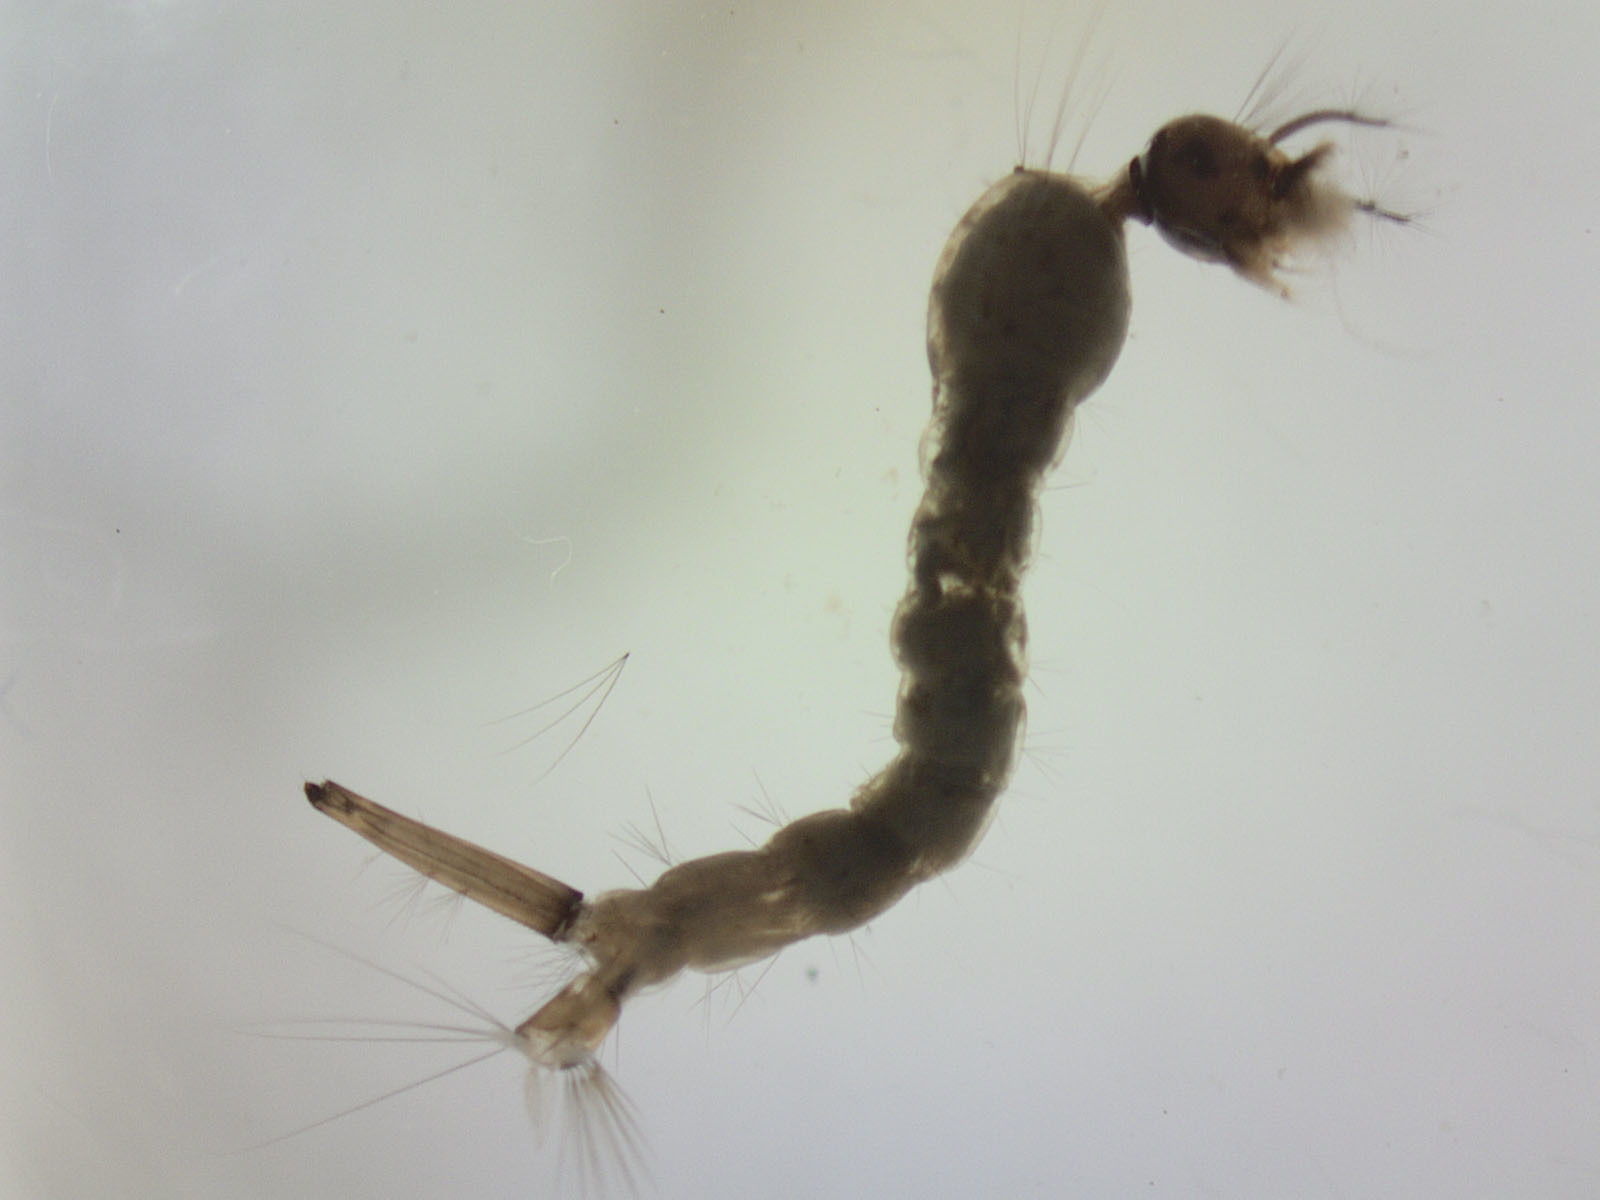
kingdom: Animalia
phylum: Arthropoda
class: Insecta
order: Diptera
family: Culicidae
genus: Culex
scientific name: Culex pervigilans
